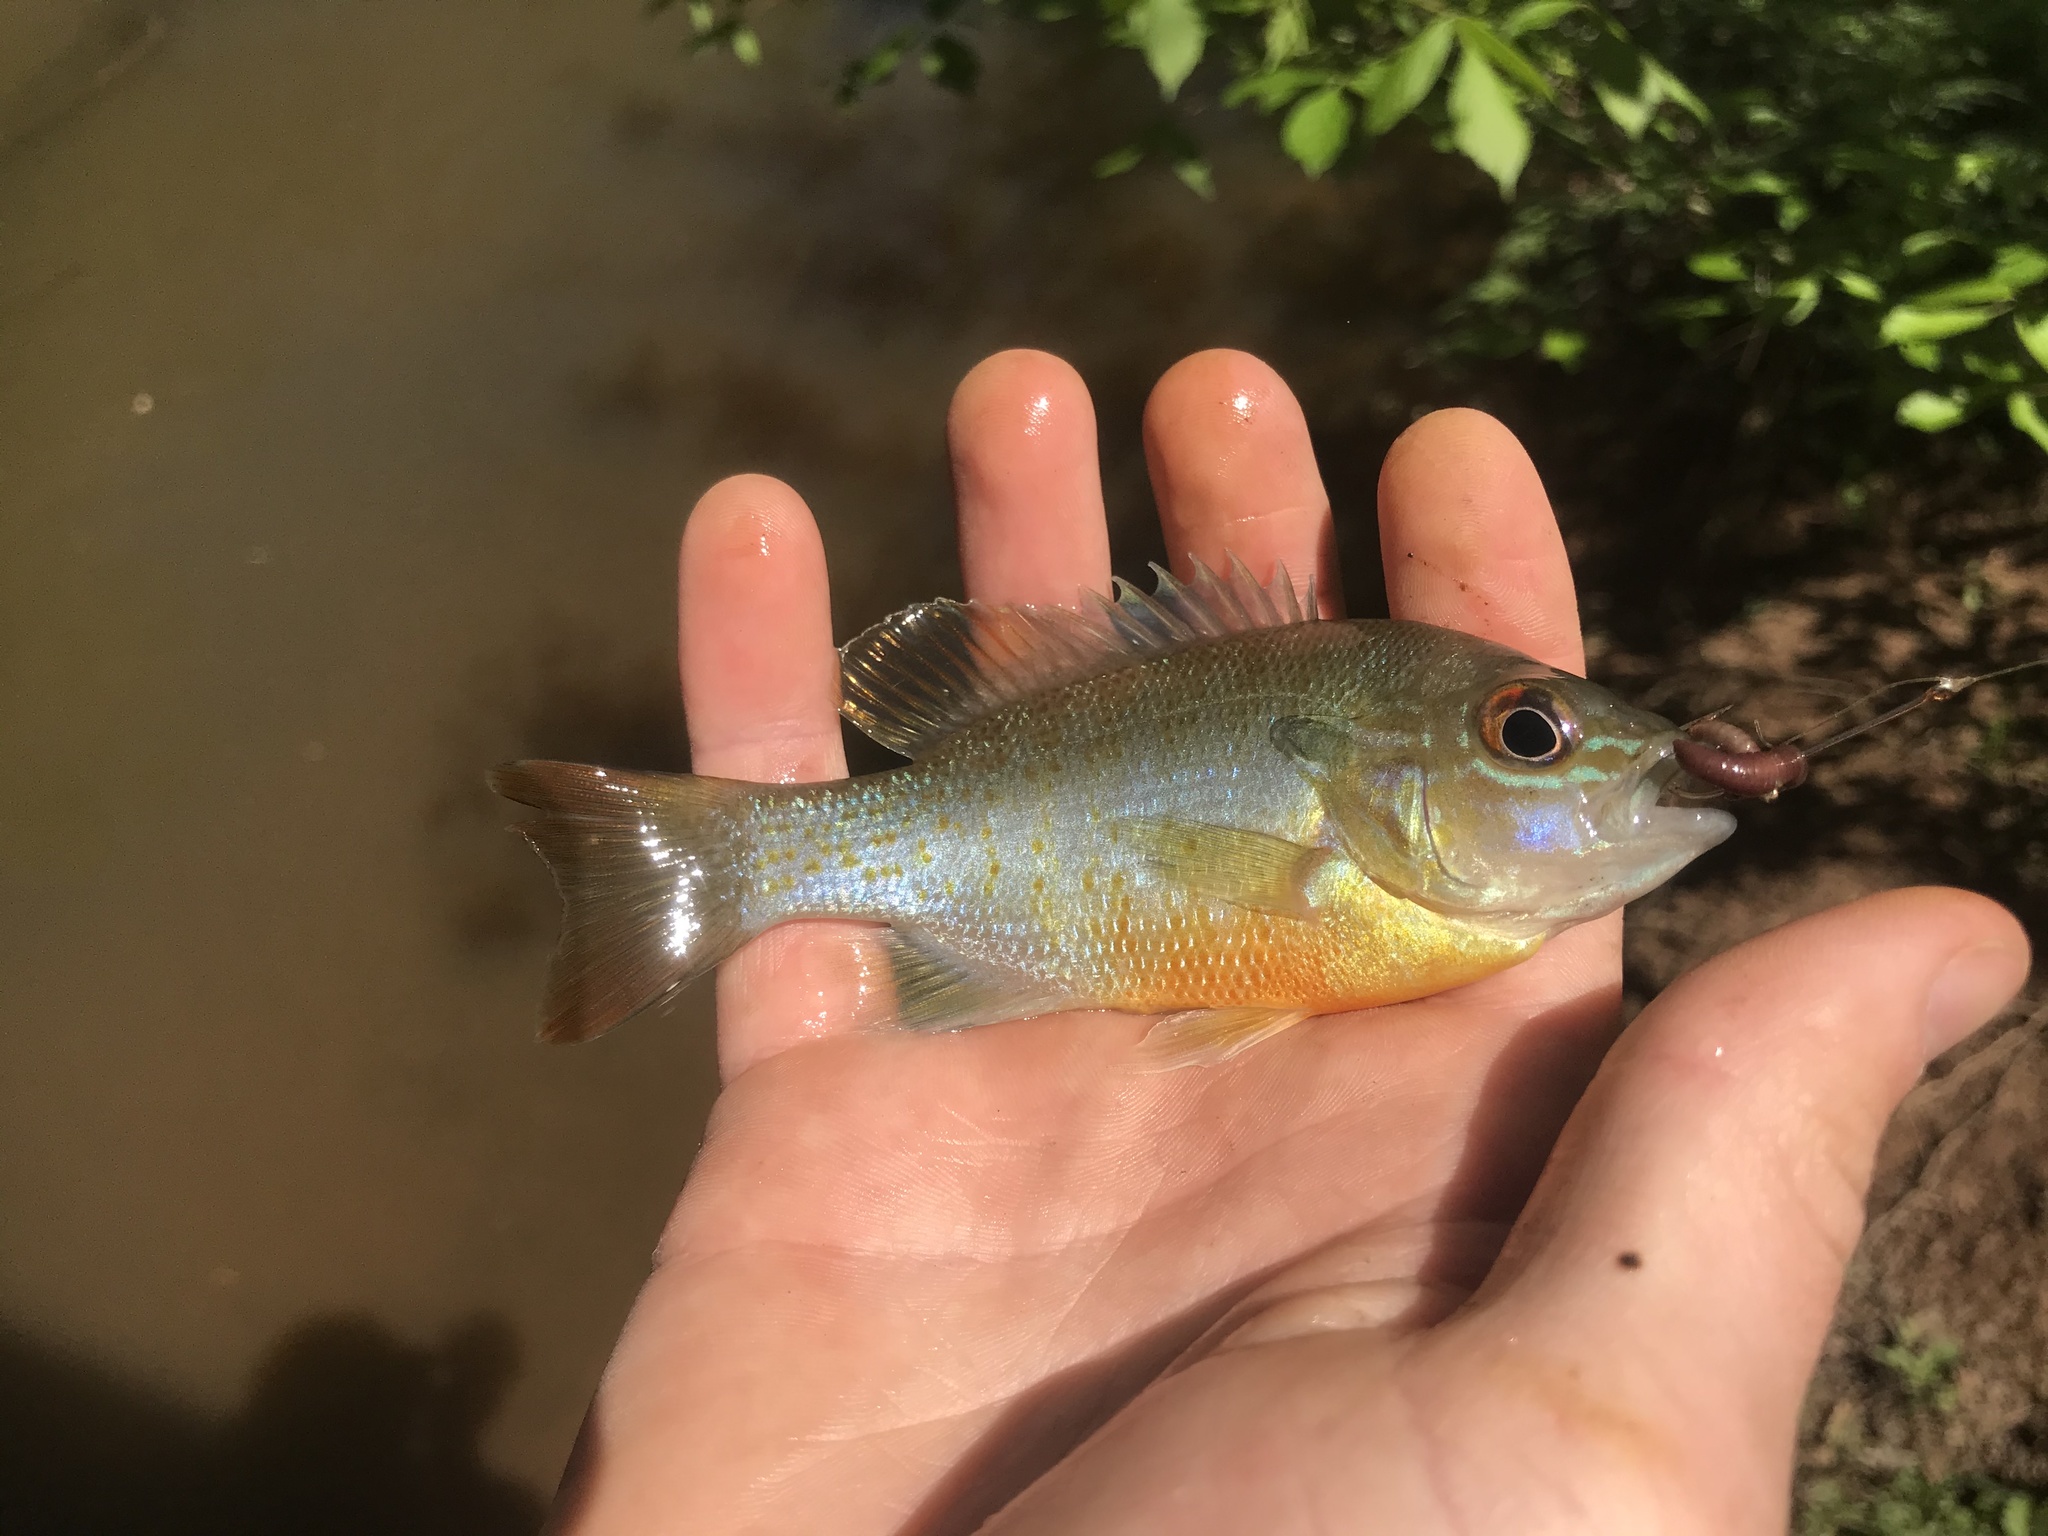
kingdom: Animalia
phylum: Chordata
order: Perciformes
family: Centrarchidae
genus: Lepomis
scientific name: Lepomis auritus
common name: Redbreast sunfish
